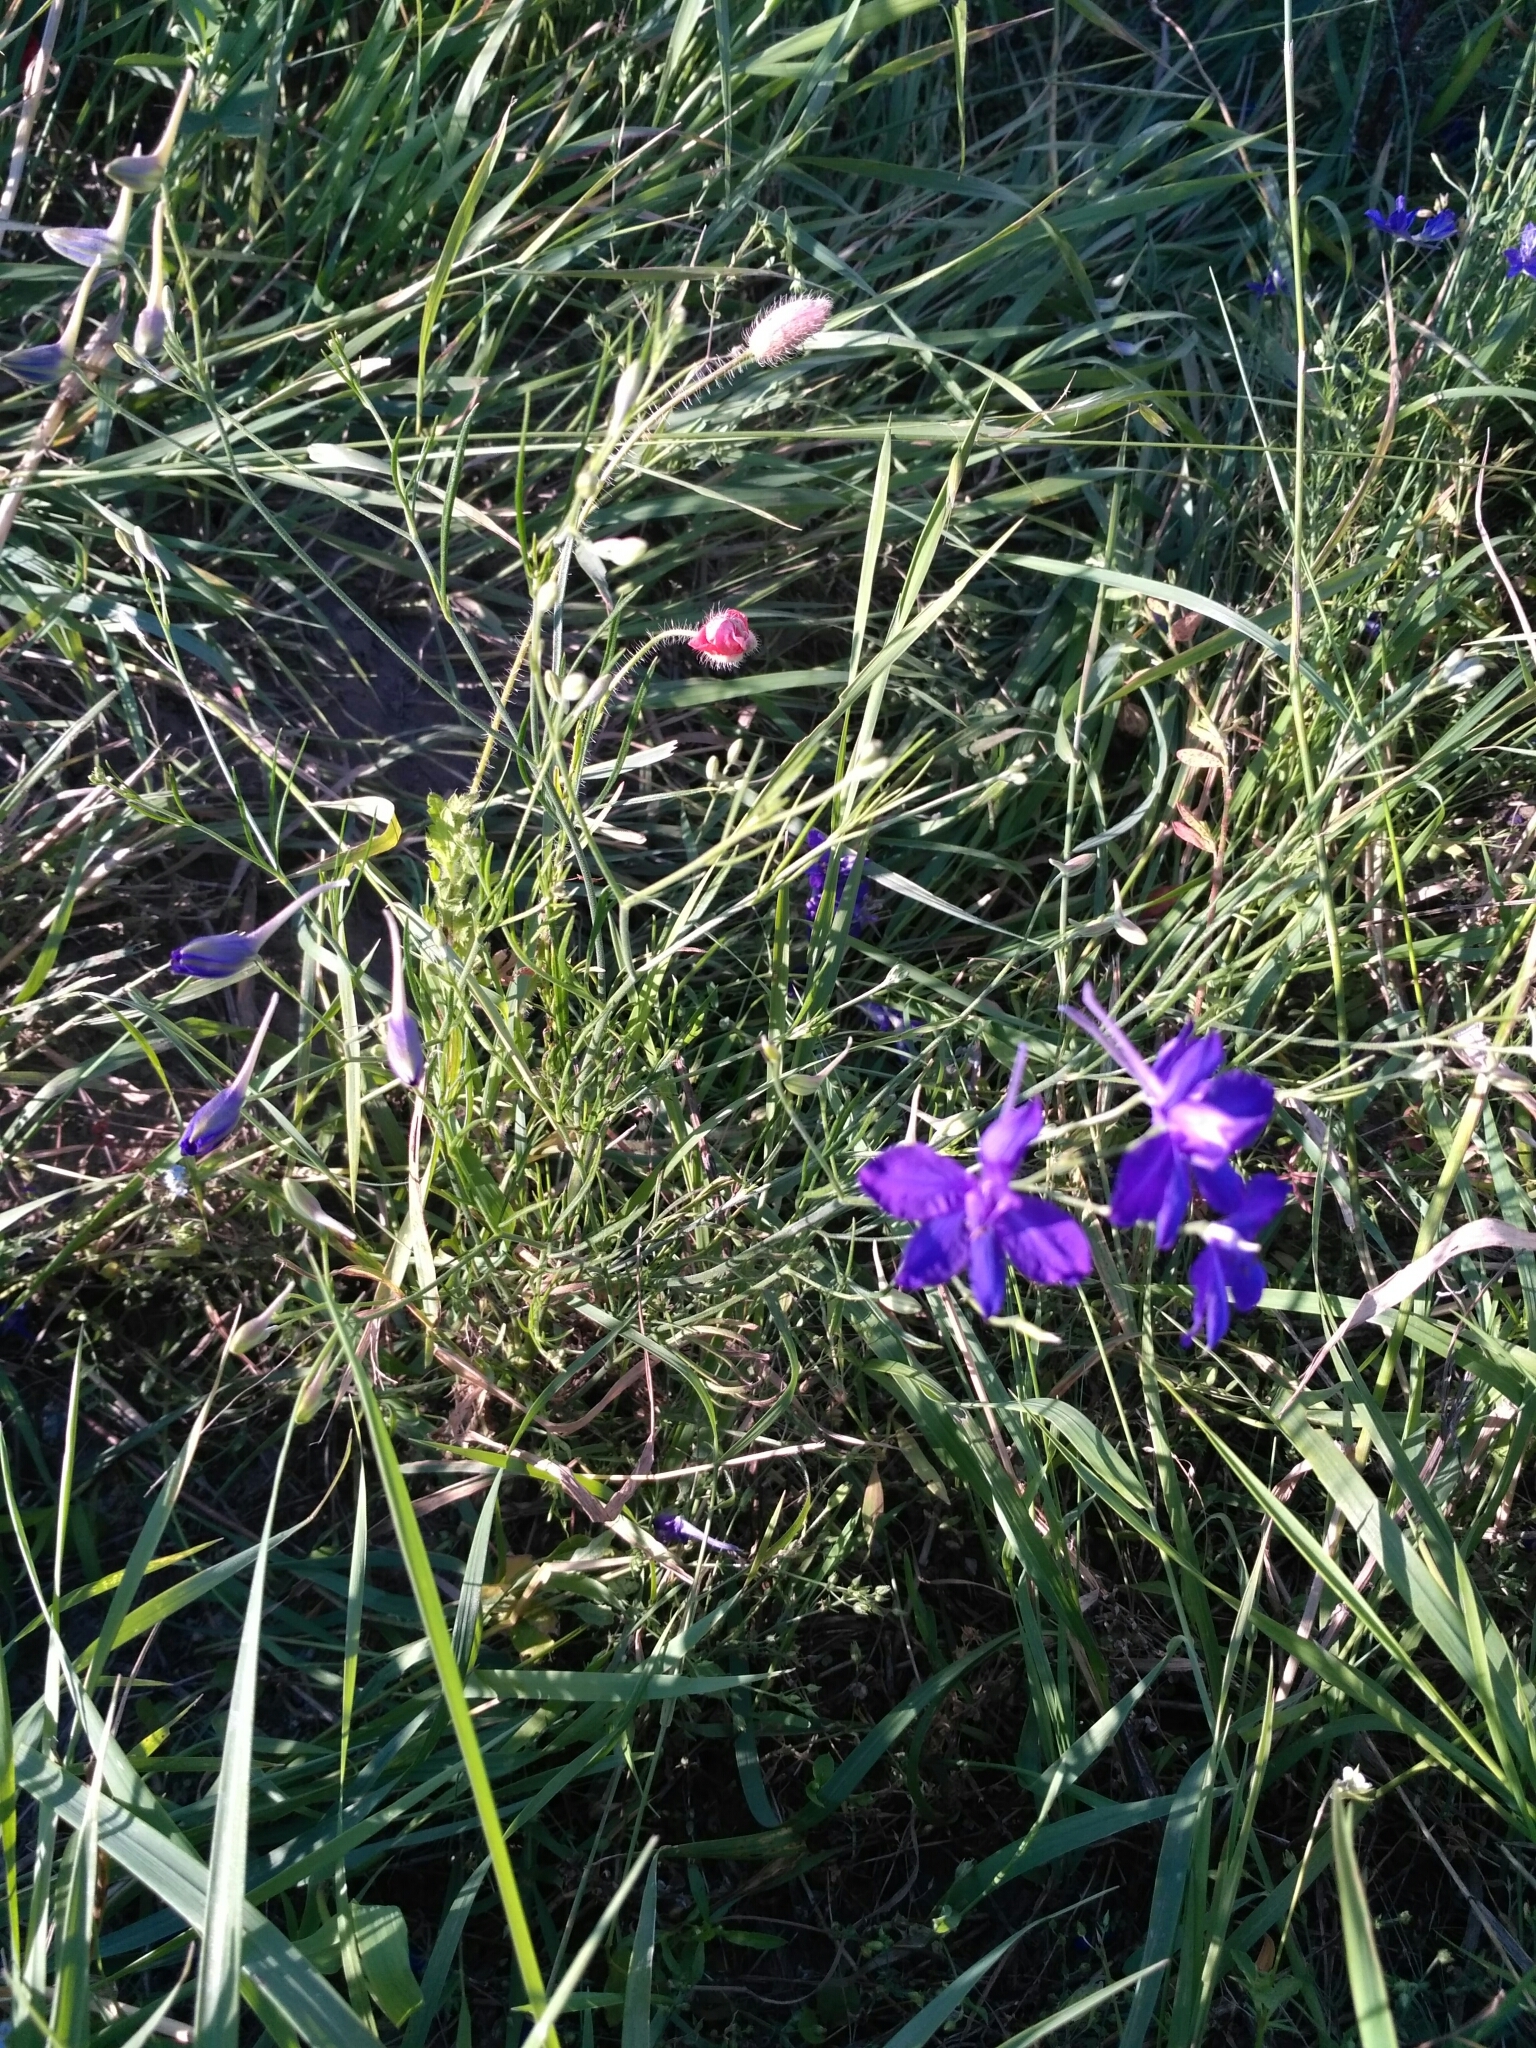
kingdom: Plantae
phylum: Tracheophyta
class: Magnoliopsida
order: Ranunculales
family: Ranunculaceae
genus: Delphinium
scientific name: Delphinium consolida
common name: Branching larkspur
